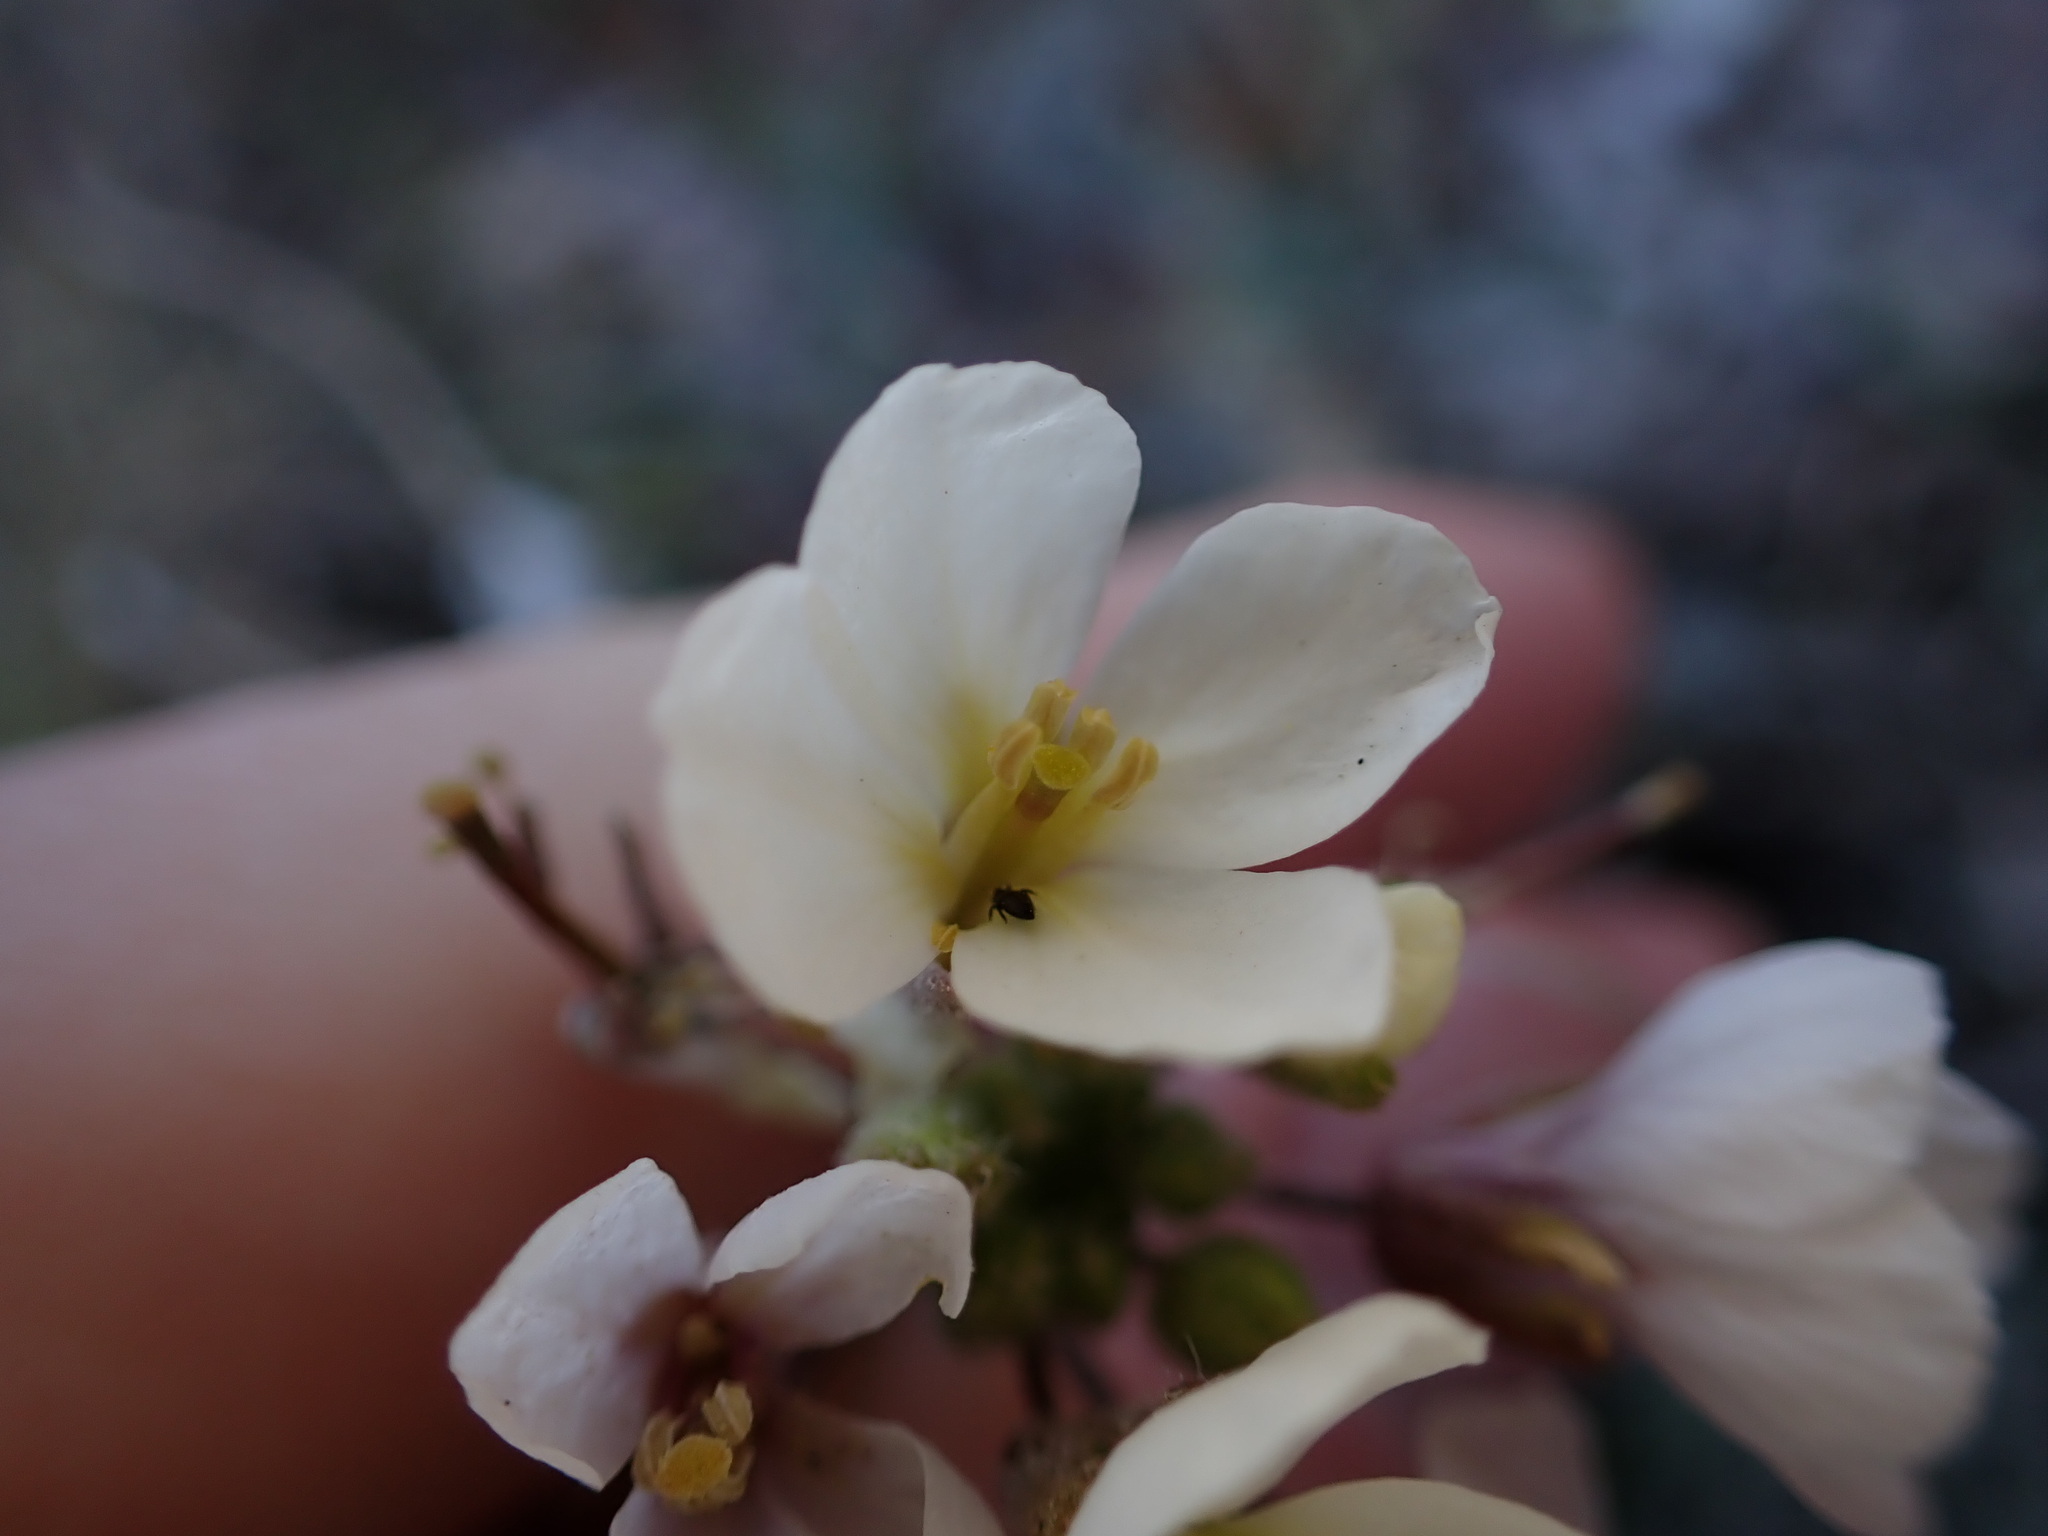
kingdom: Plantae
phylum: Tracheophyta
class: Magnoliopsida
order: Brassicales
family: Brassicaceae
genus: Diplotaxis
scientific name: Diplotaxis erucoides
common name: White rocket
